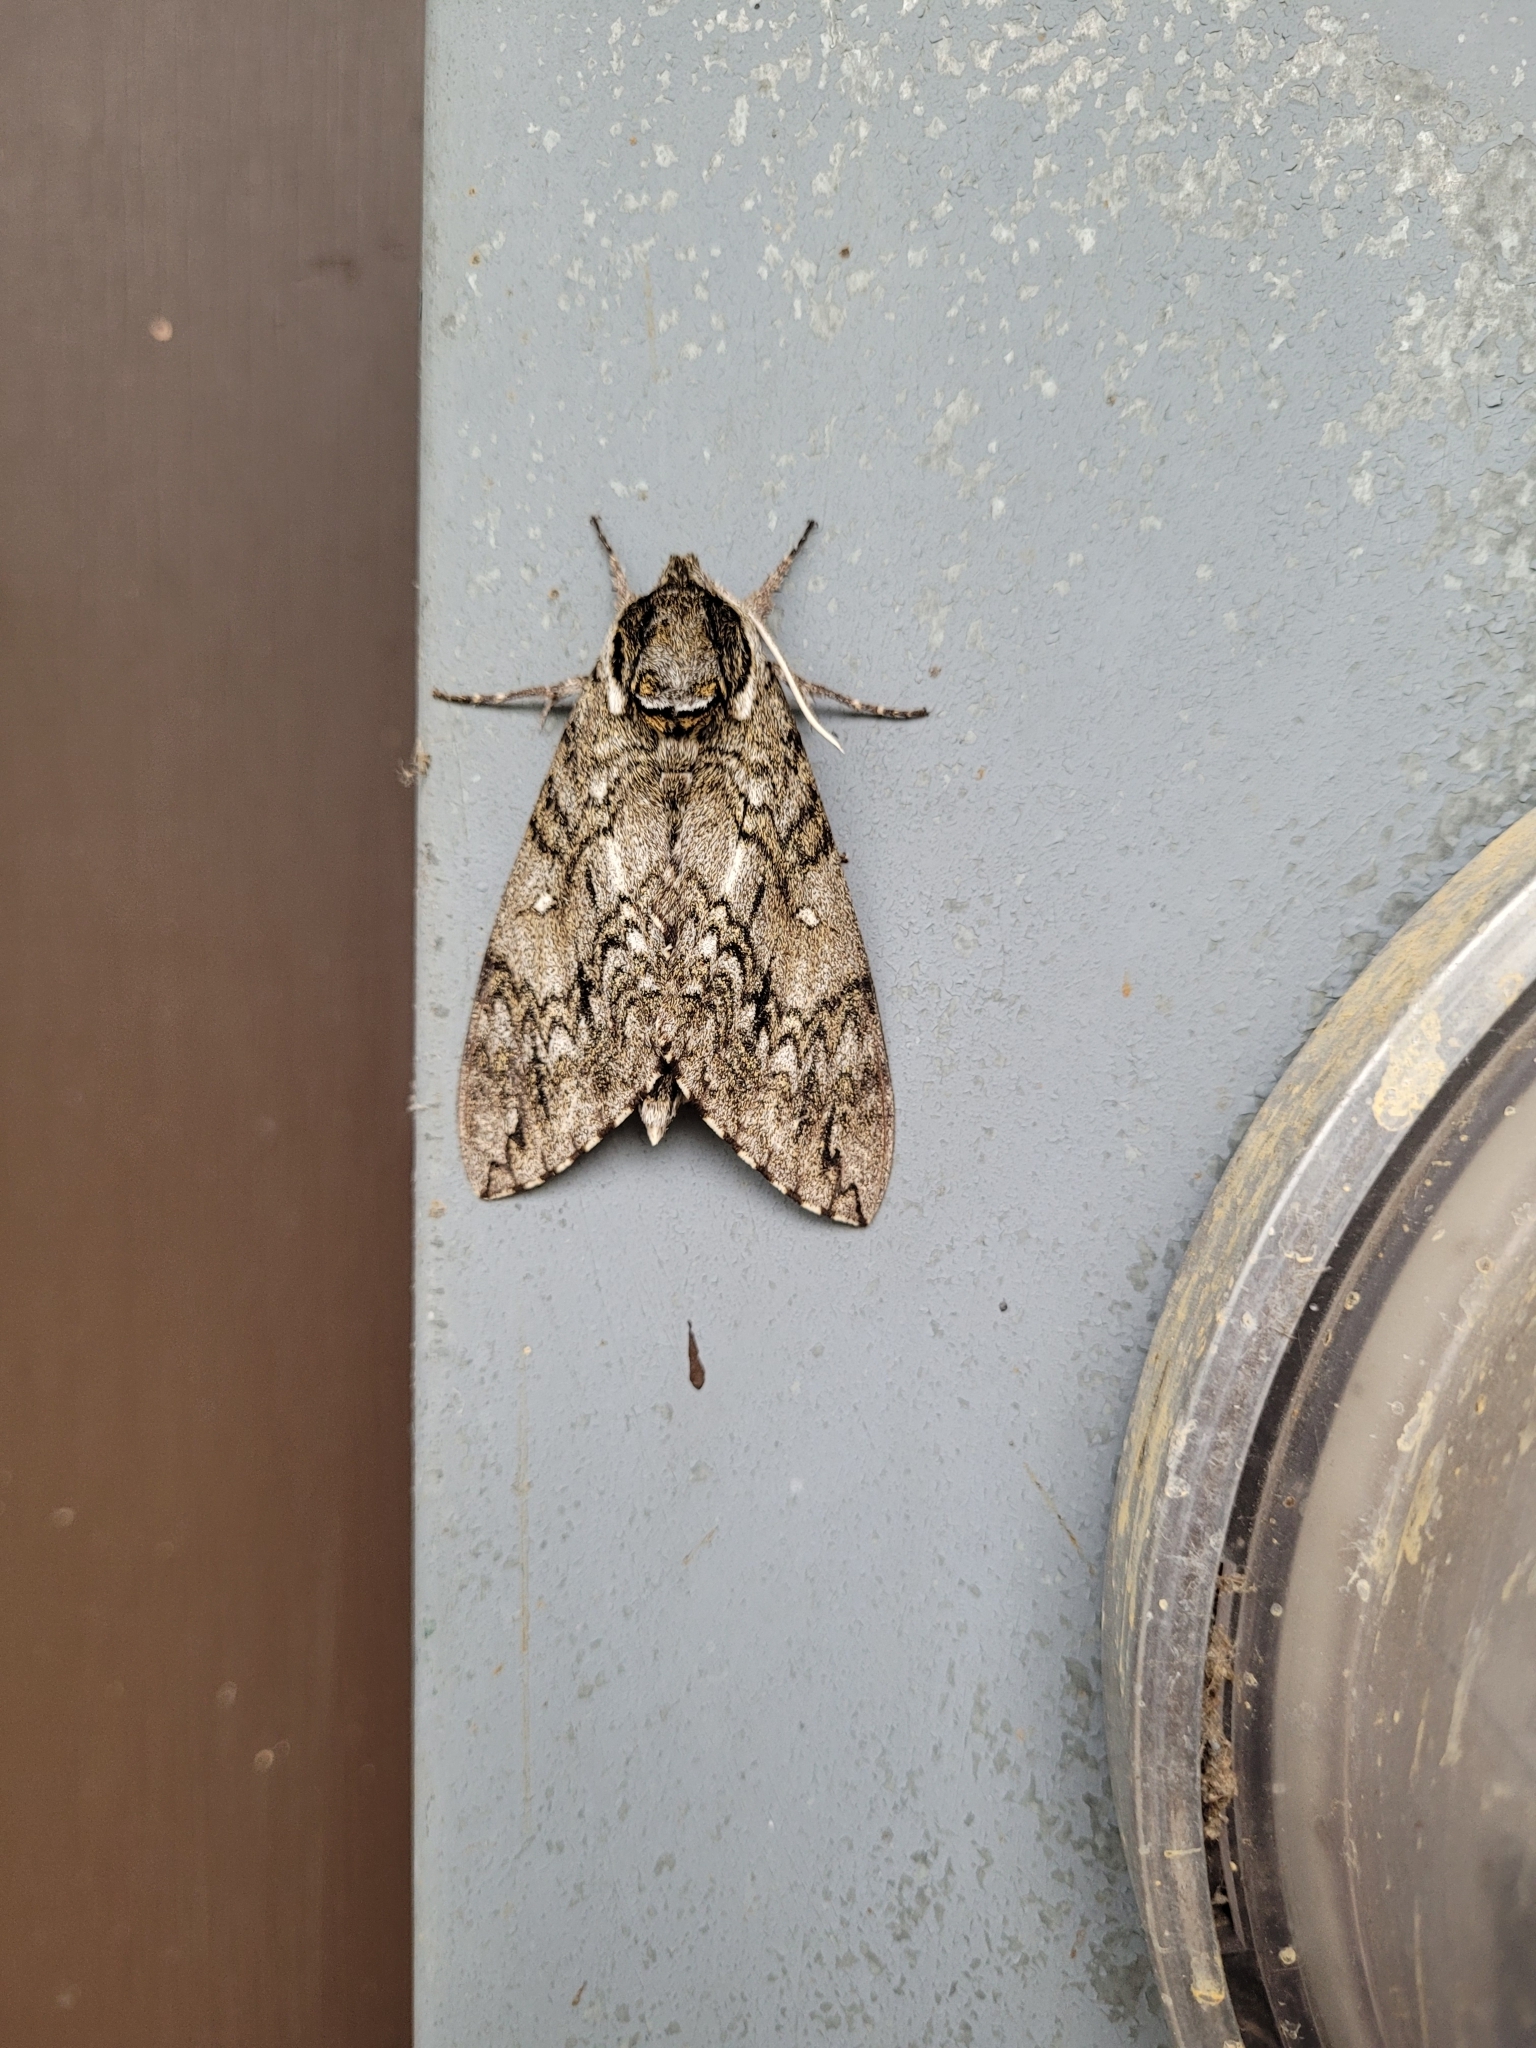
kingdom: Animalia
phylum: Arthropoda
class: Insecta
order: Lepidoptera
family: Sphingidae
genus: Ceratomia
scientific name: Ceratomia undulosa
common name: Waved sphinx
